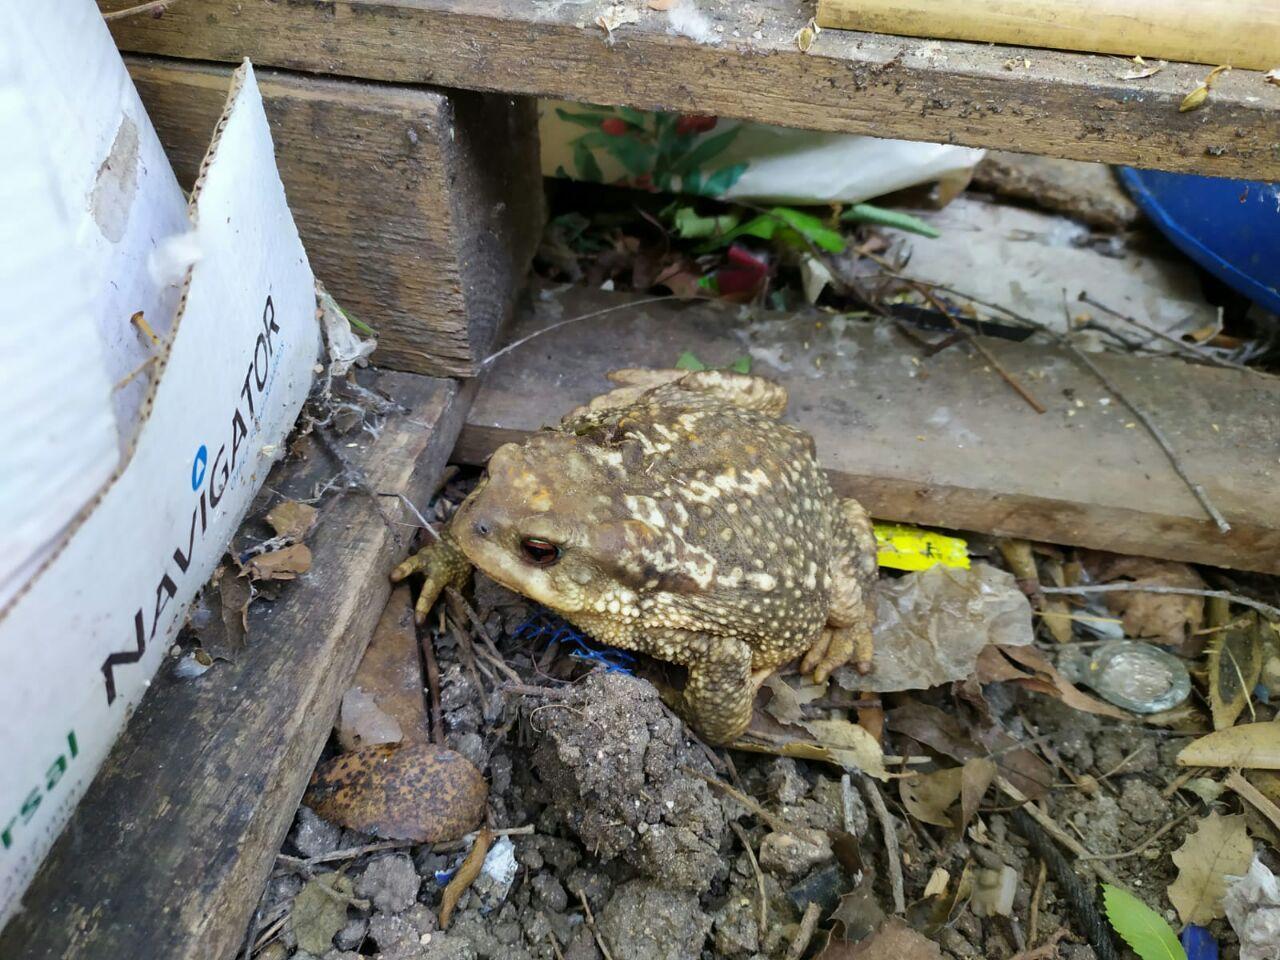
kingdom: Animalia
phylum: Chordata
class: Amphibia
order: Anura
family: Bufonidae
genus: Bufo
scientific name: Bufo spinosus
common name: Western common toad
